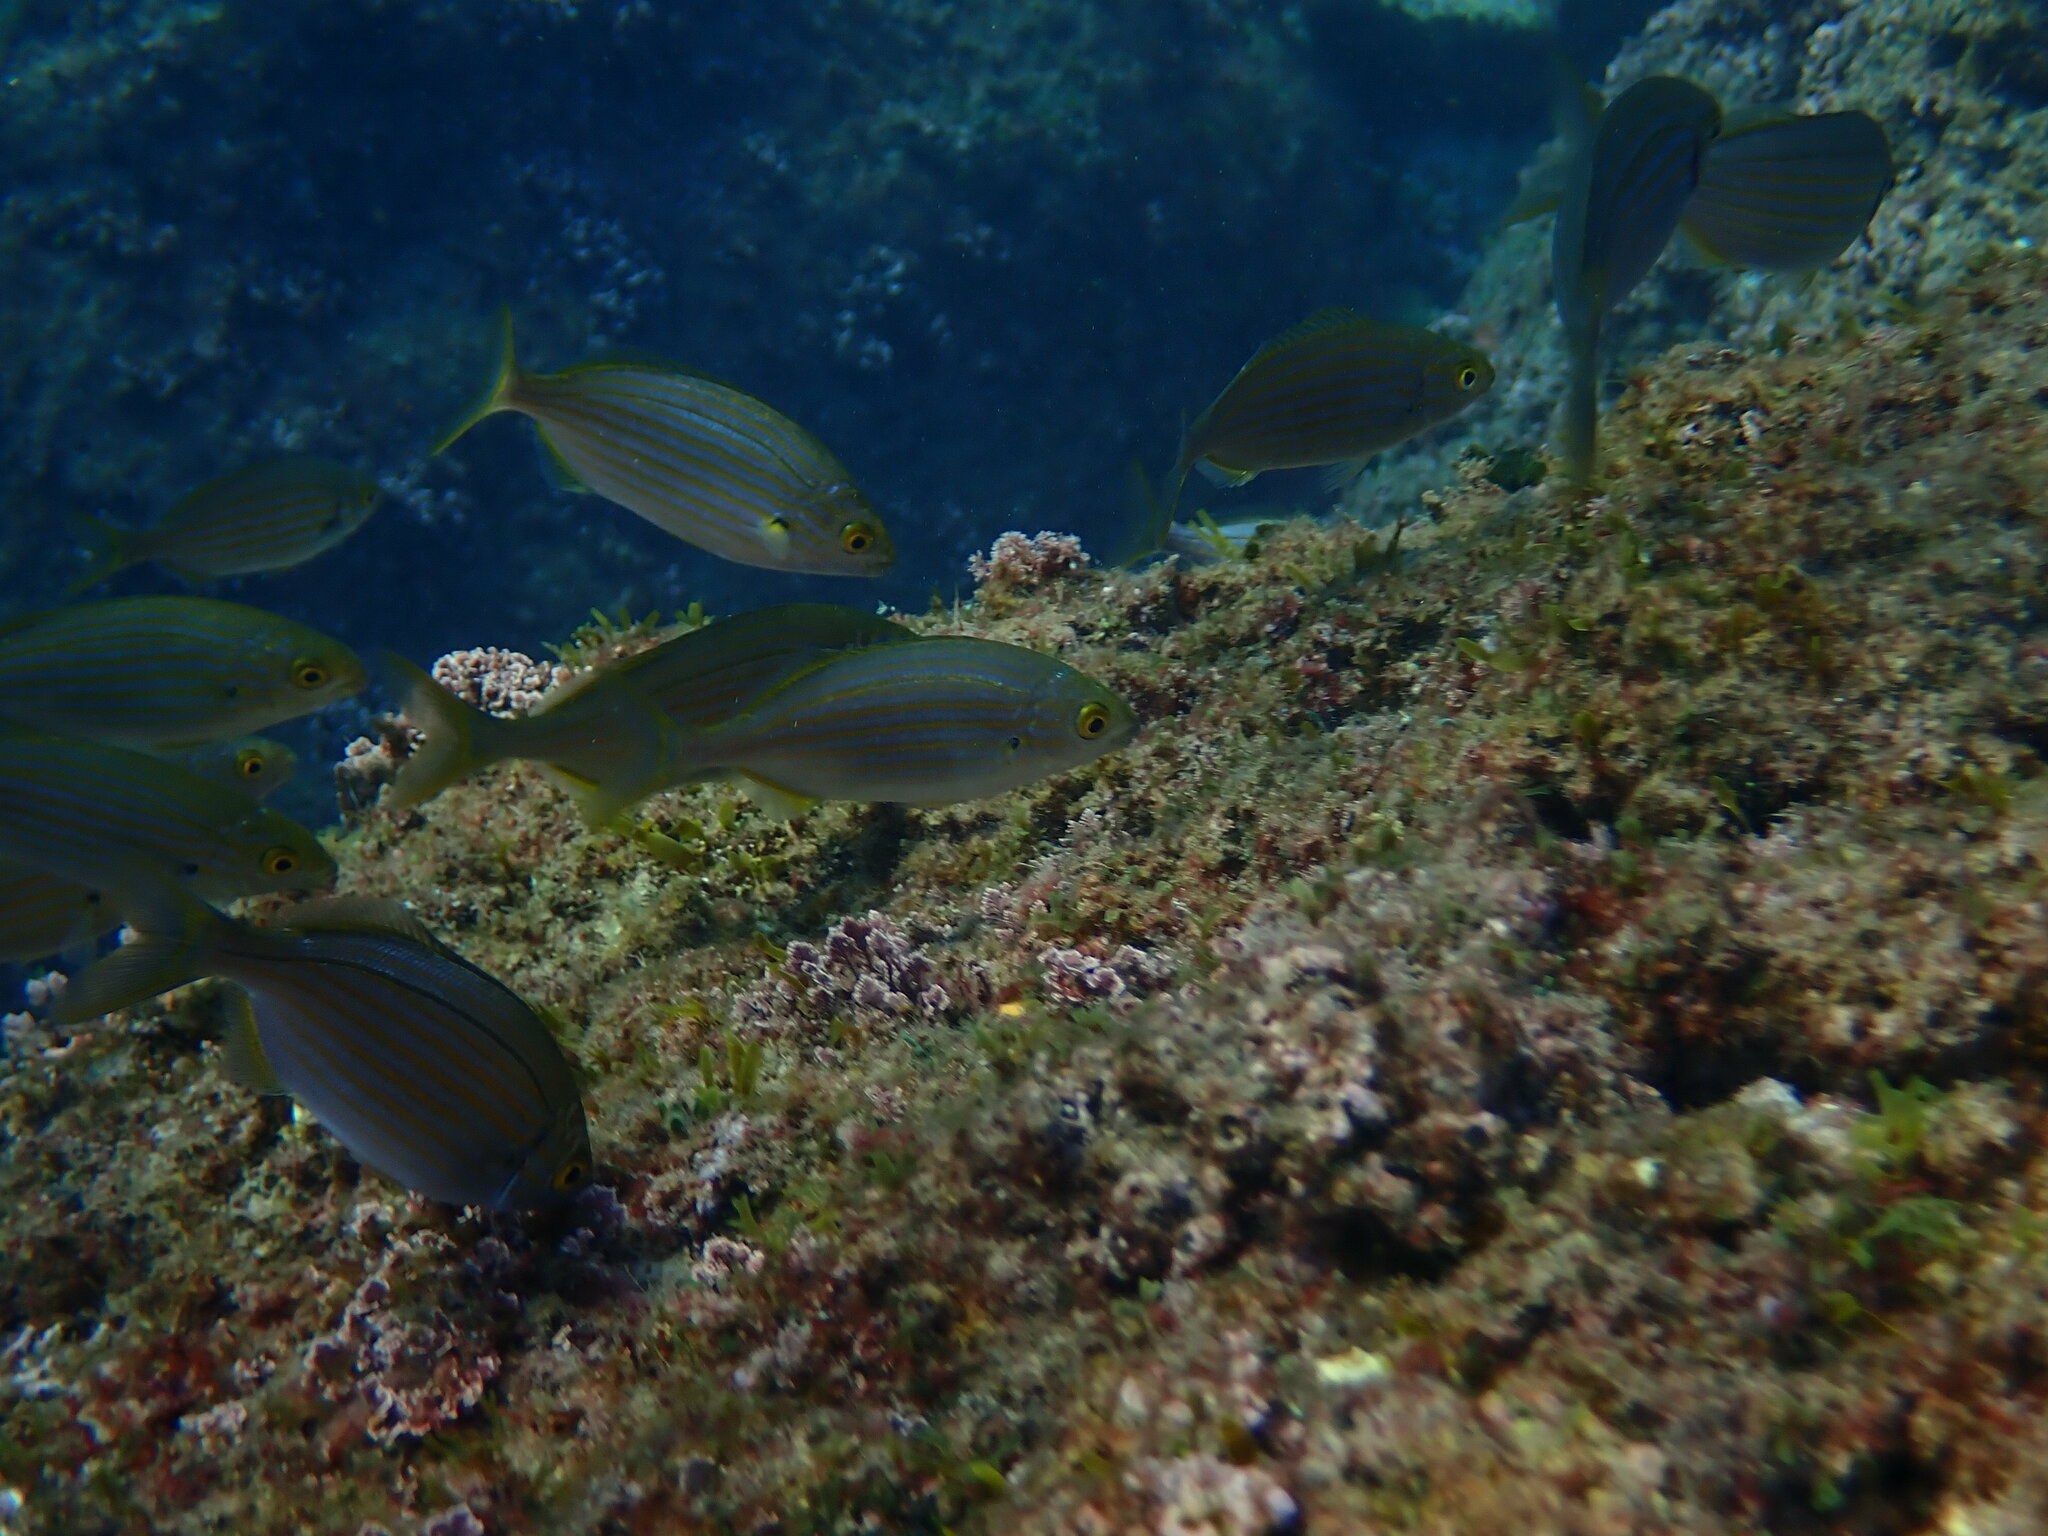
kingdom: Animalia
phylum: Chordata
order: Perciformes
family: Sparidae
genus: Sarpa
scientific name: Sarpa salpa
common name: Salema
